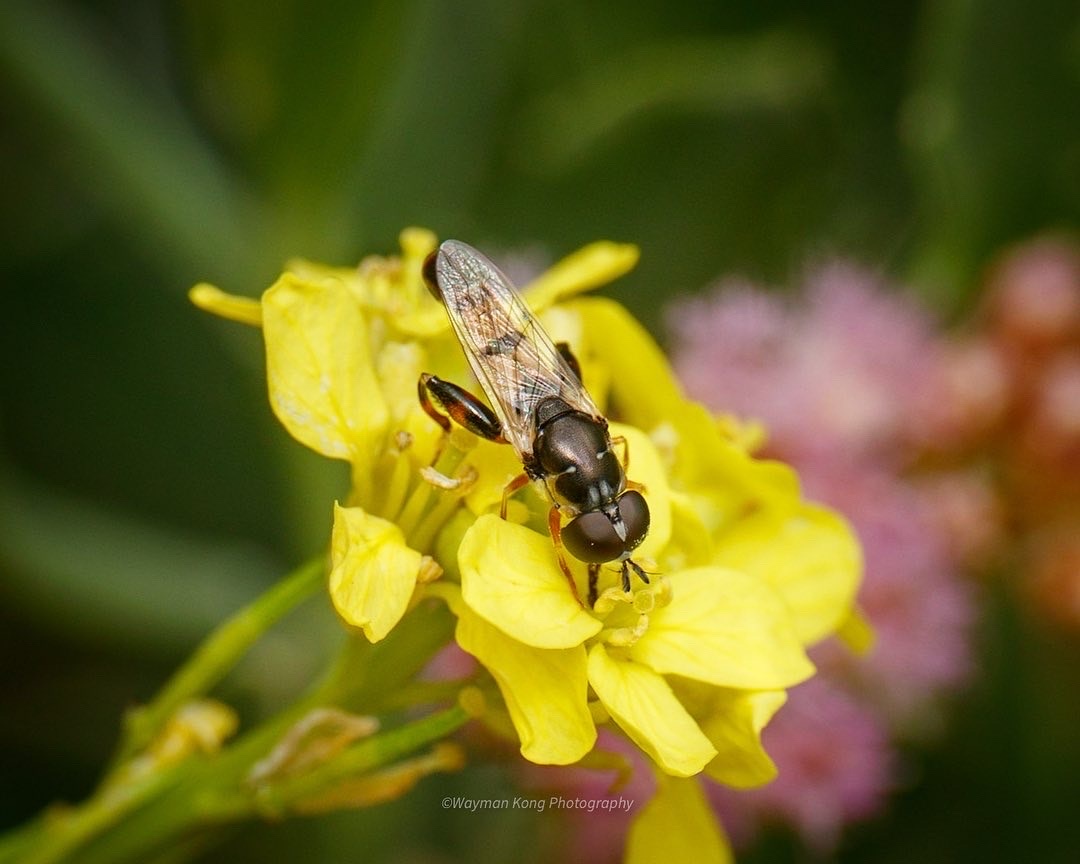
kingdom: Animalia
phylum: Arthropoda
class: Insecta
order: Diptera
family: Syrphidae
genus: Syritta
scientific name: Syritta flaviventris
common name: Syrphid fly
